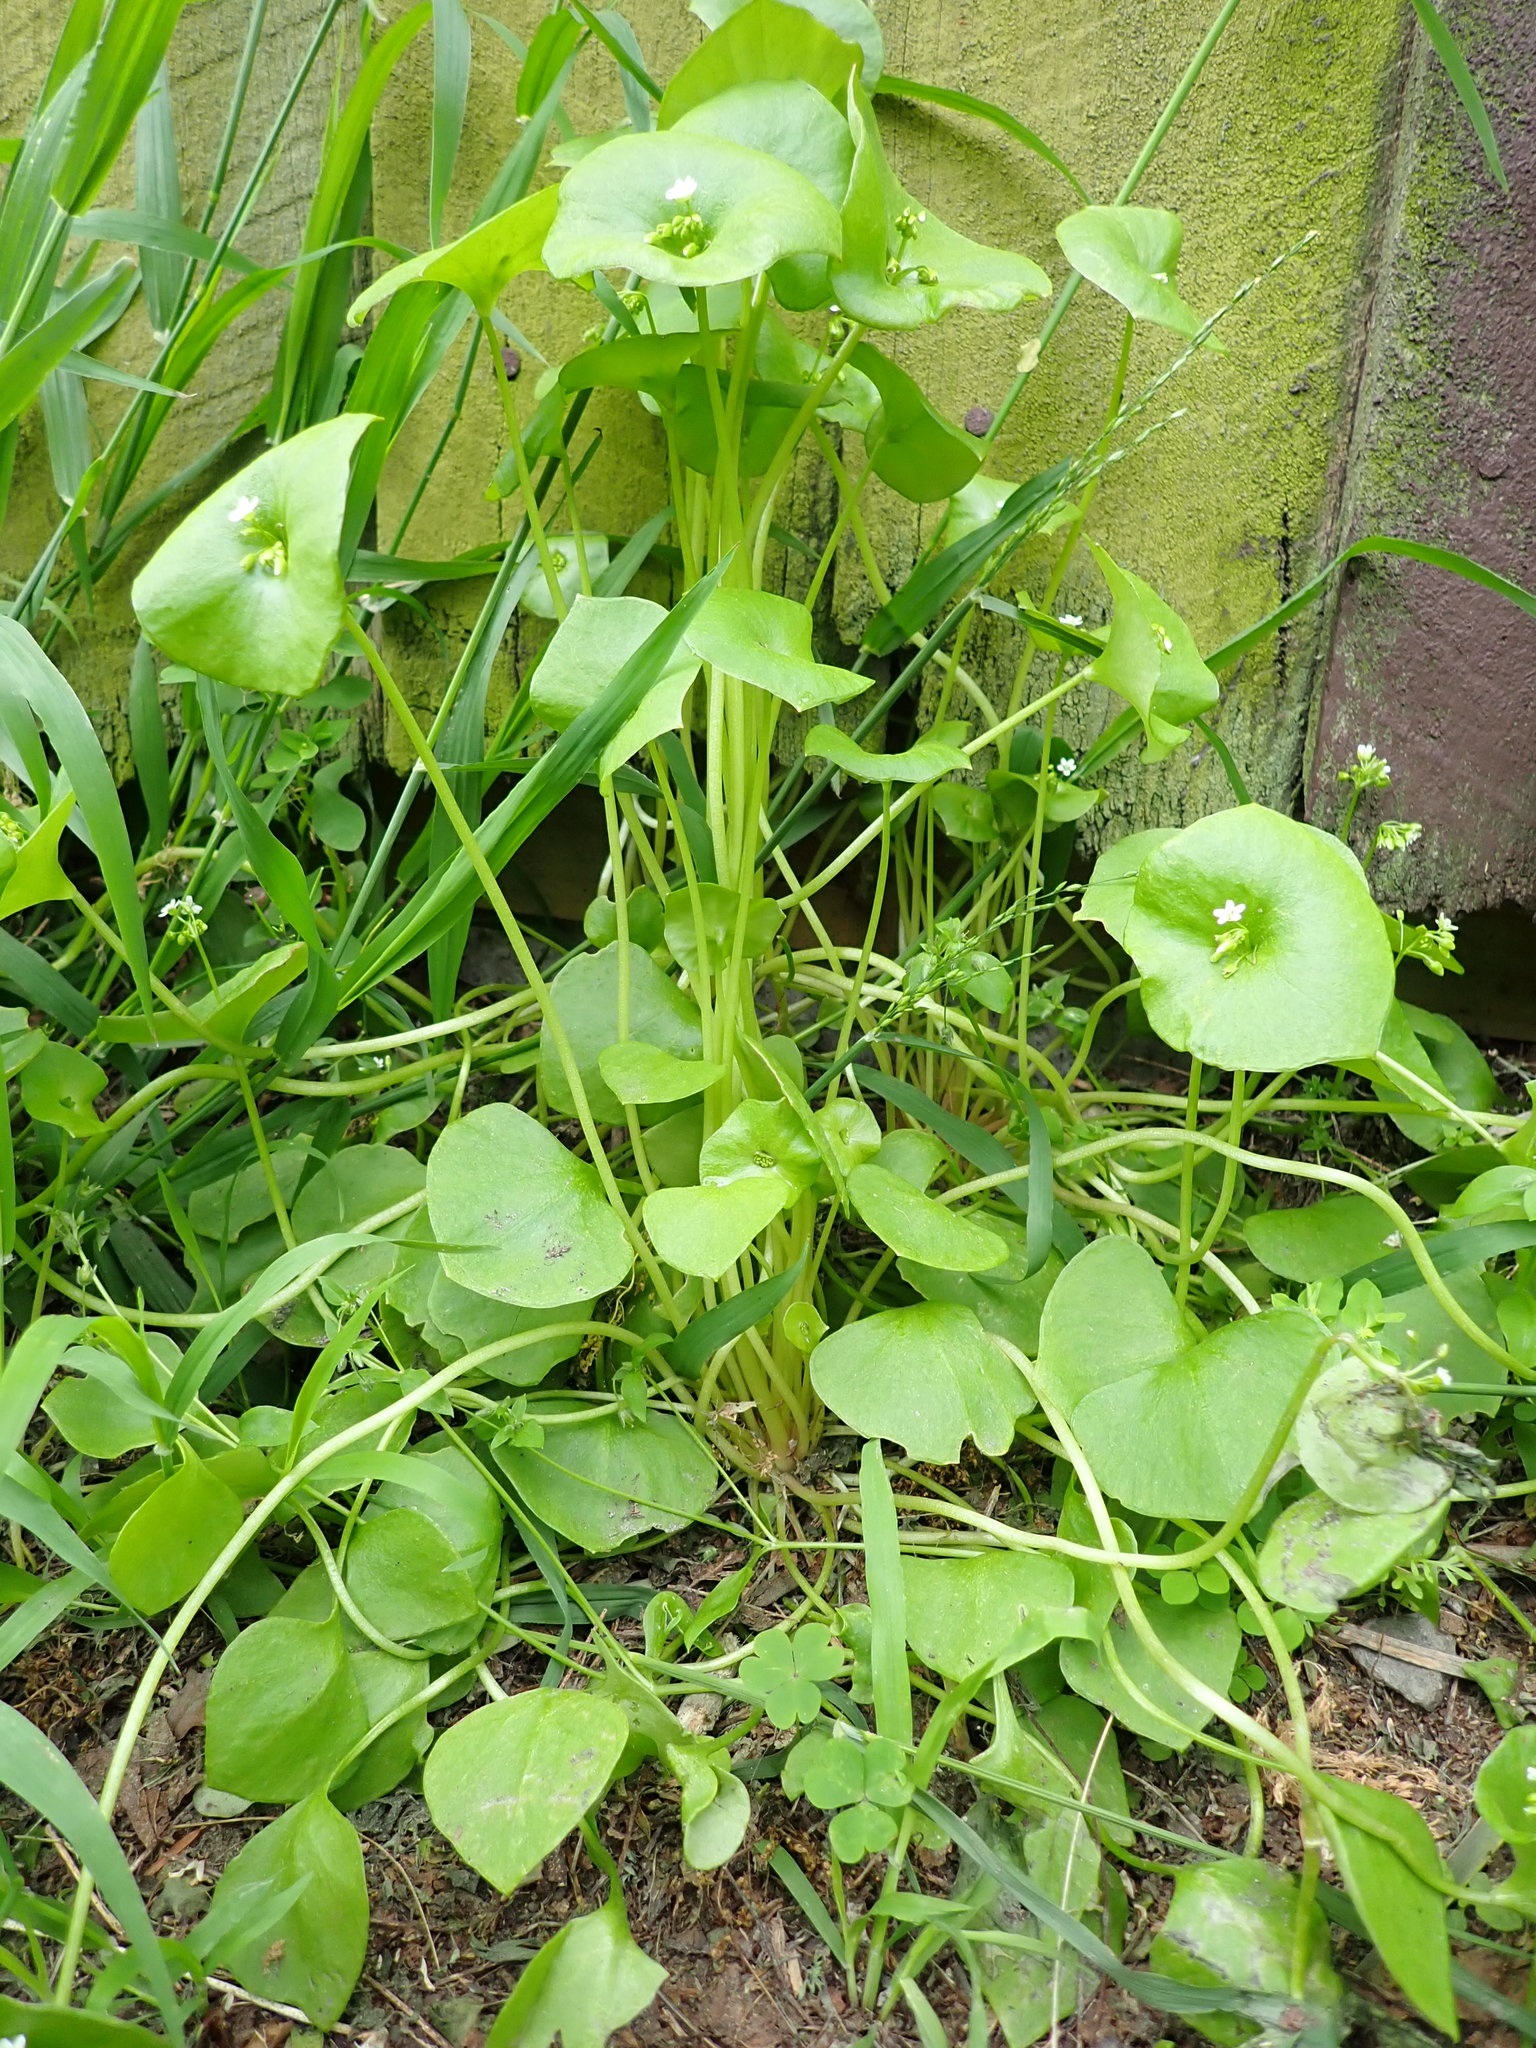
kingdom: Plantae
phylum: Tracheophyta
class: Magnoliopsida
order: Caryophyllales
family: Montiaceae
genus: Claytonia
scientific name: Claytonia perfoliata
